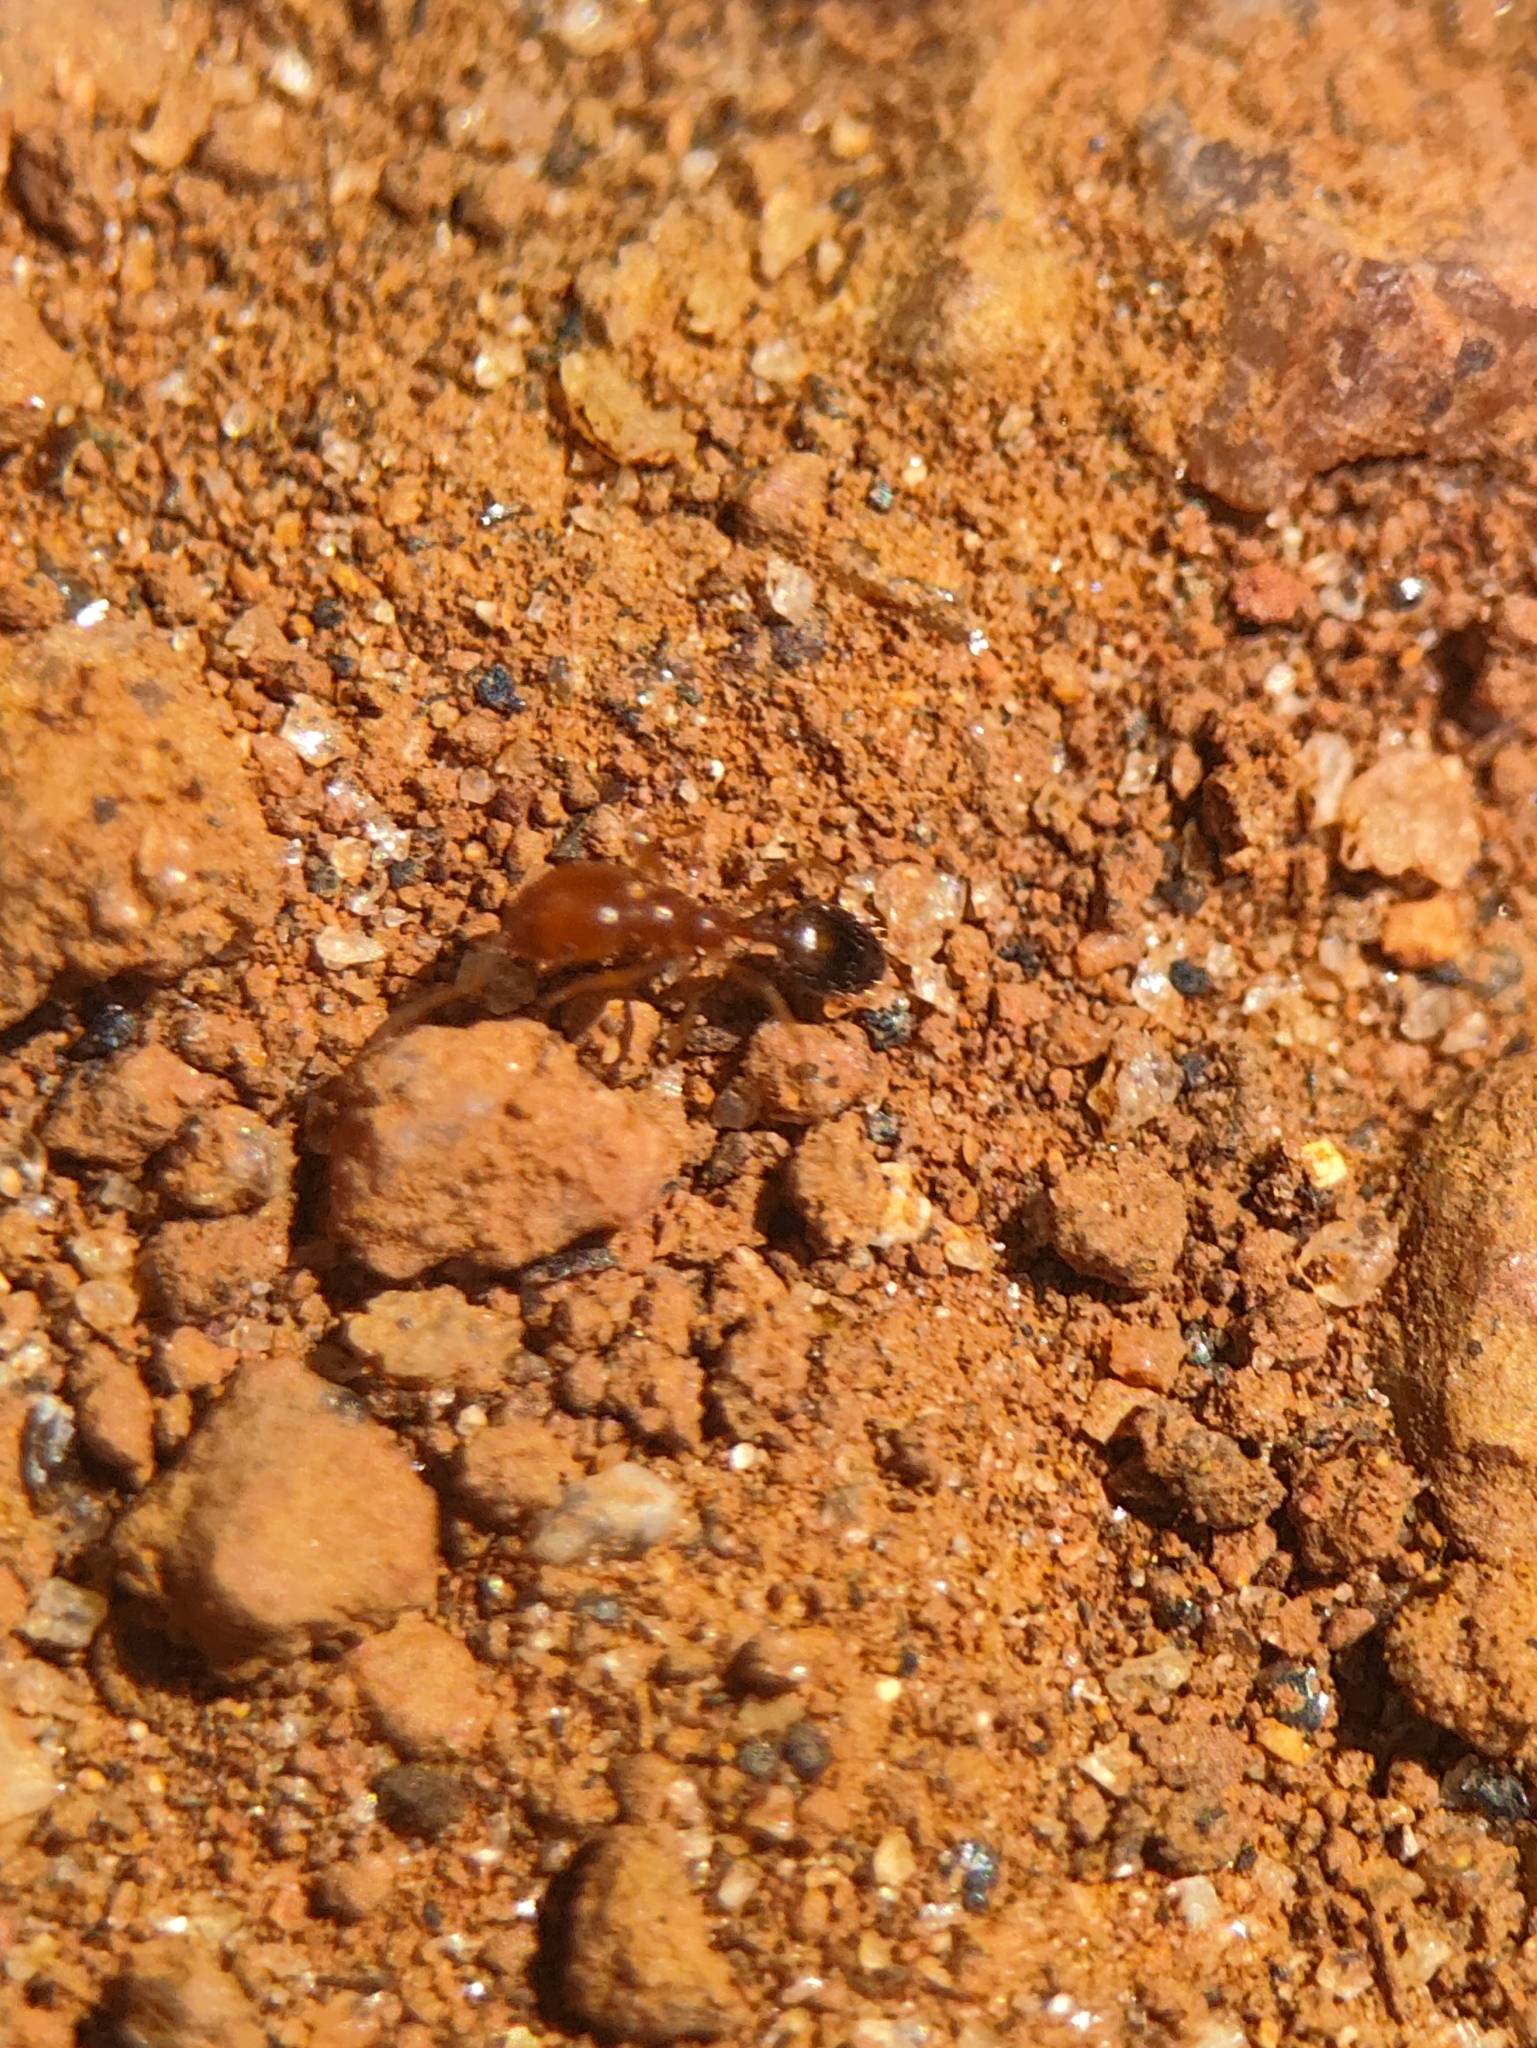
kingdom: Animalia
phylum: Arthropoda
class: Insecta
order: Hymenoptera
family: Formicidae
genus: Monomorium
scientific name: Monomorium destructor
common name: Destructive trailing ant
